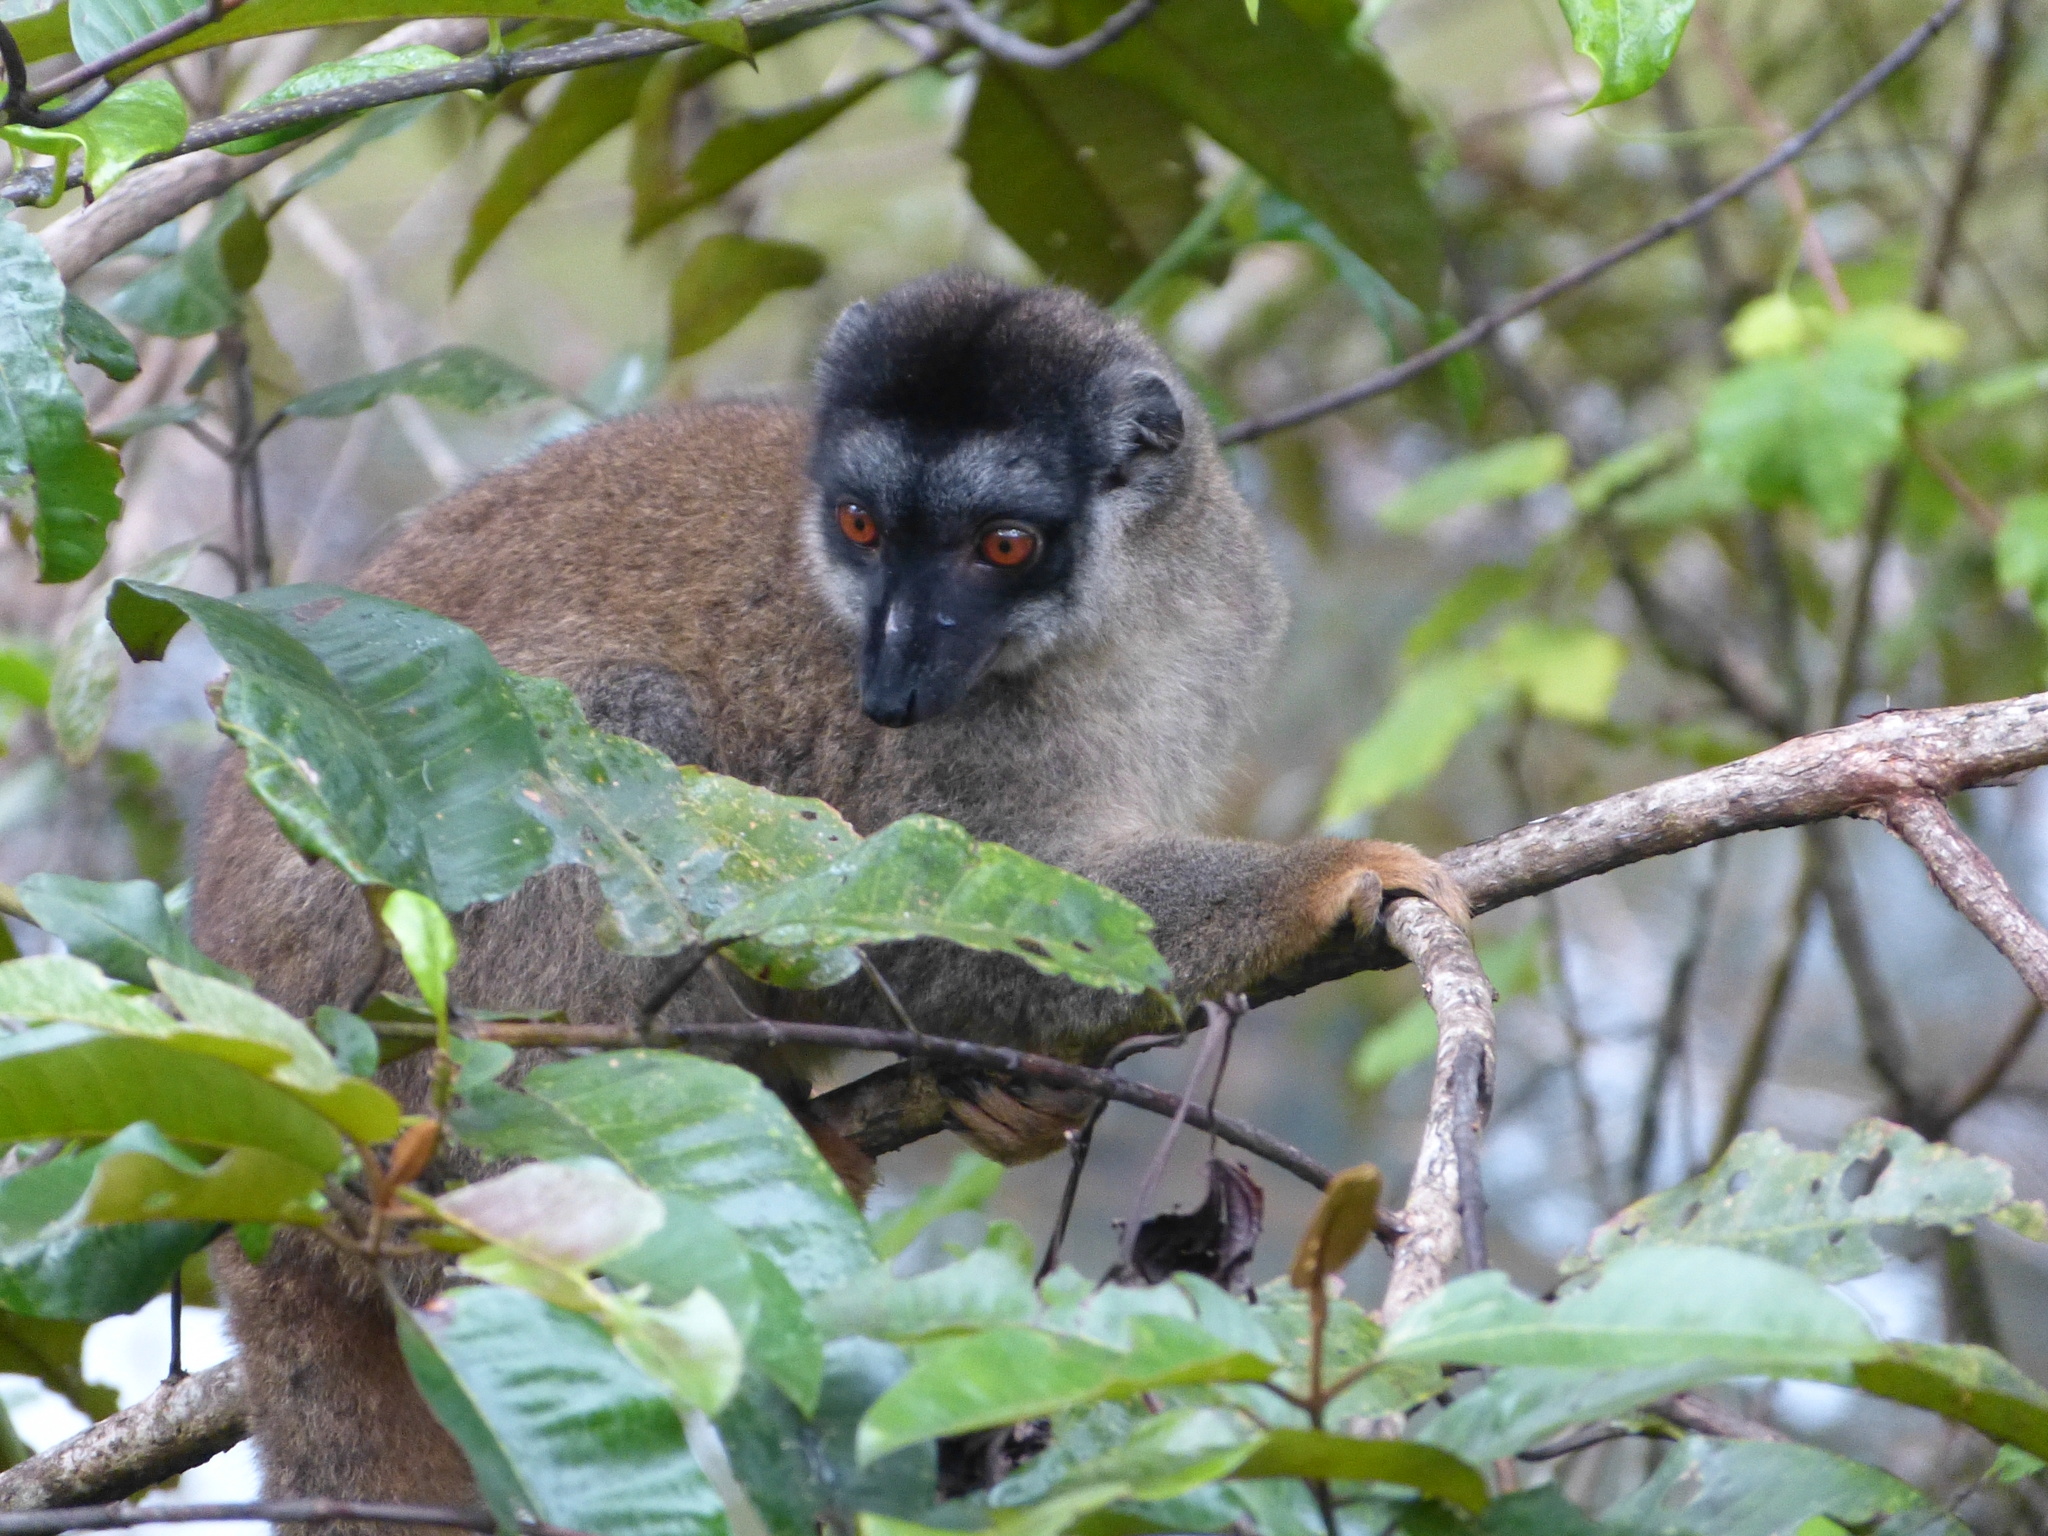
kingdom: Animalia
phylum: Chordata
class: Mammalia
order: Primates
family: Lemuridae
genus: Eulemur
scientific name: Eulemur fulvus
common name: Brown lemur
